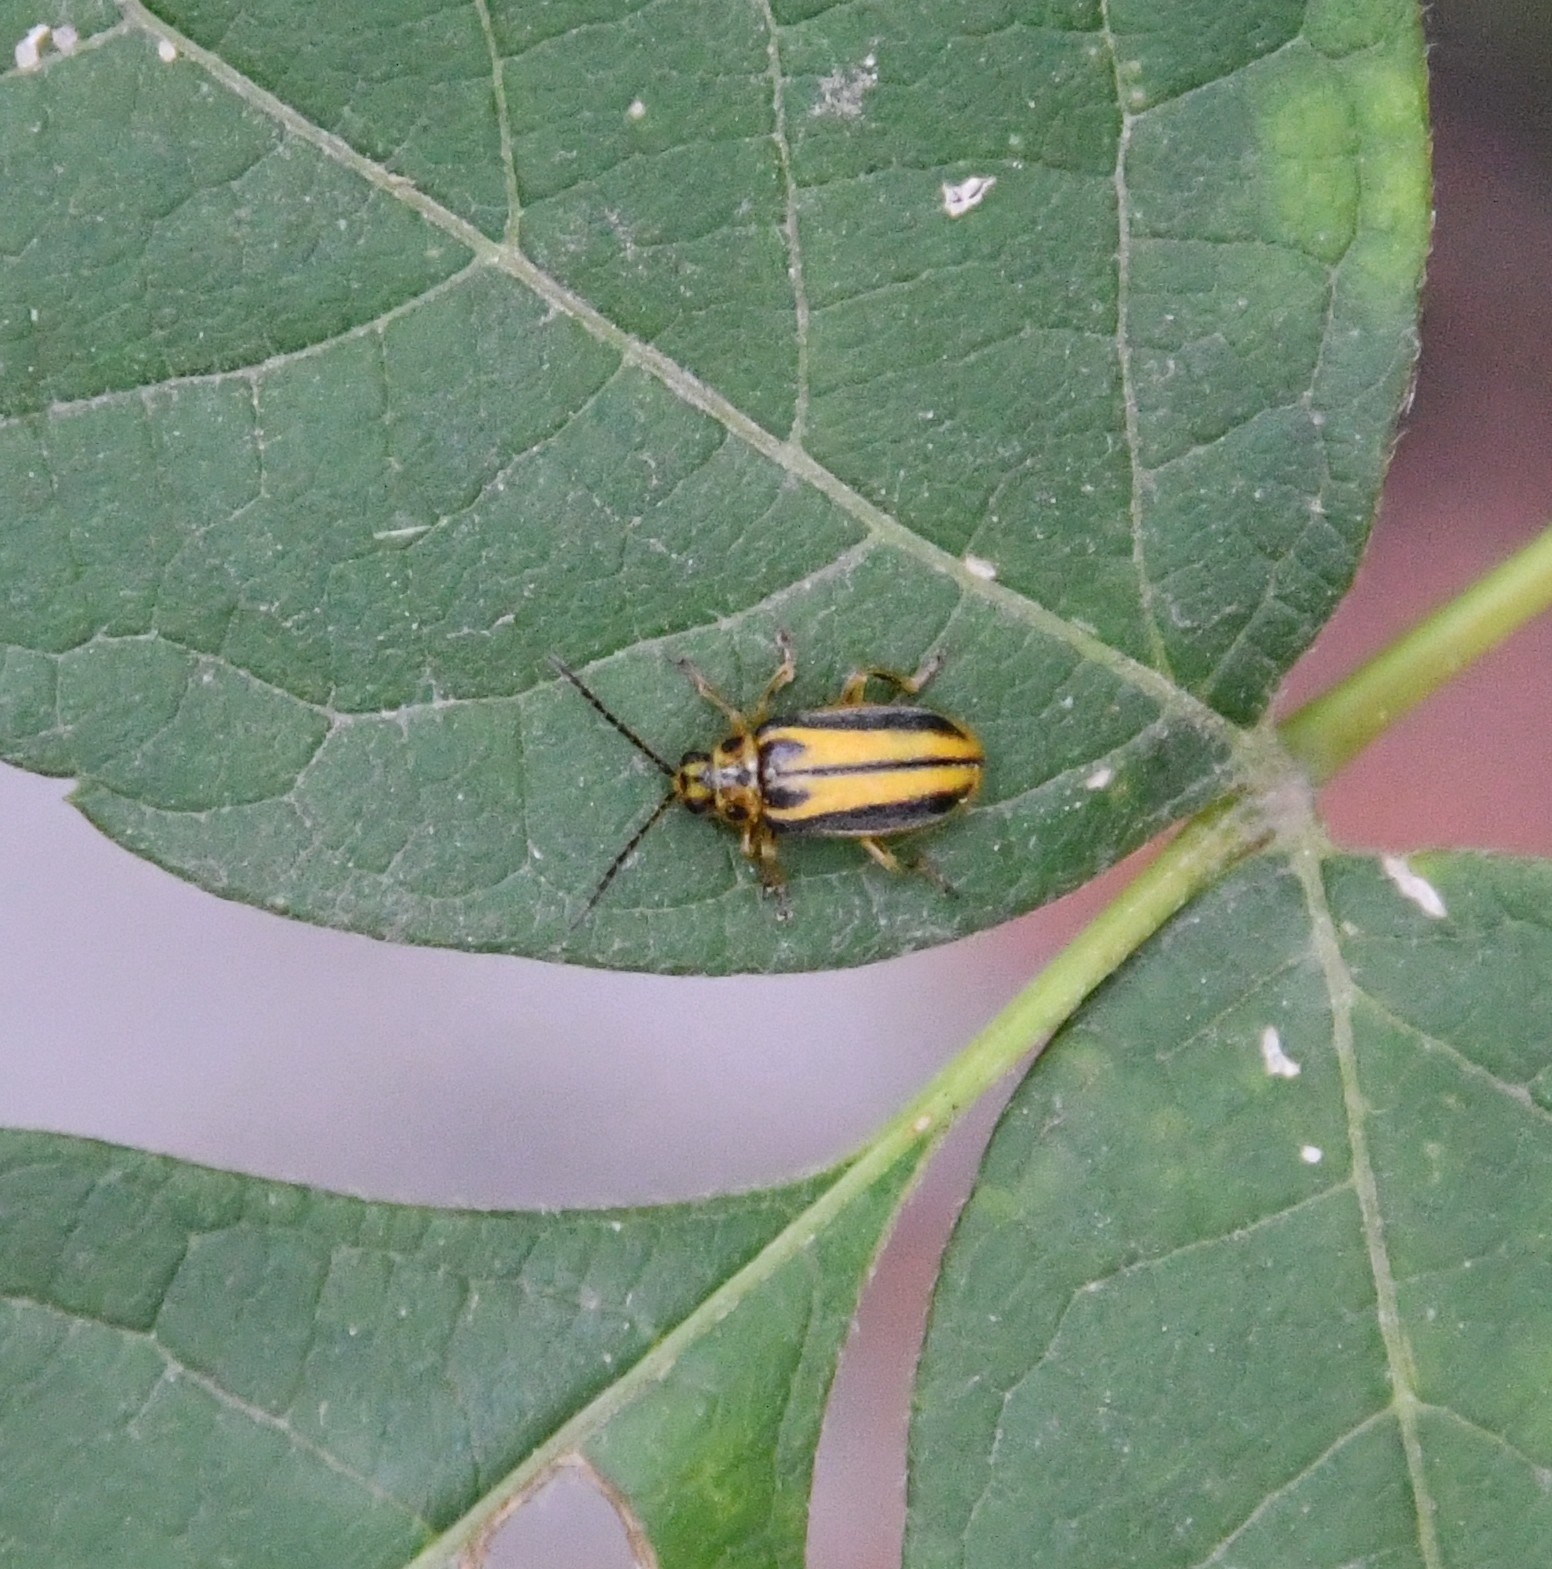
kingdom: Animalia
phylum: Arthropoda
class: Insecta
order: Coleoptera
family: Chrysomelidae
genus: Xanthogaleruca
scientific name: Xanthogaleruca luteola
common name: Elm leaf beetle
